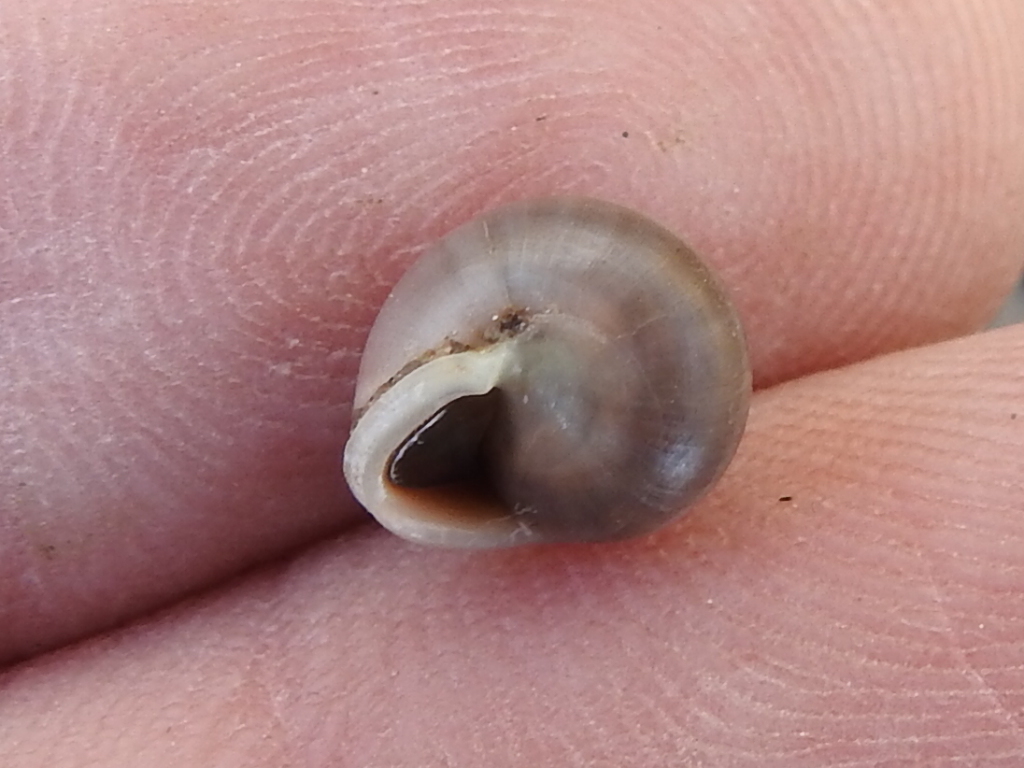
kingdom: Animalia
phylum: Mollusca
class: Gastropoda
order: Cycloneritida
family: Helicinidae
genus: Helicina
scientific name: Helicina orbiculata
